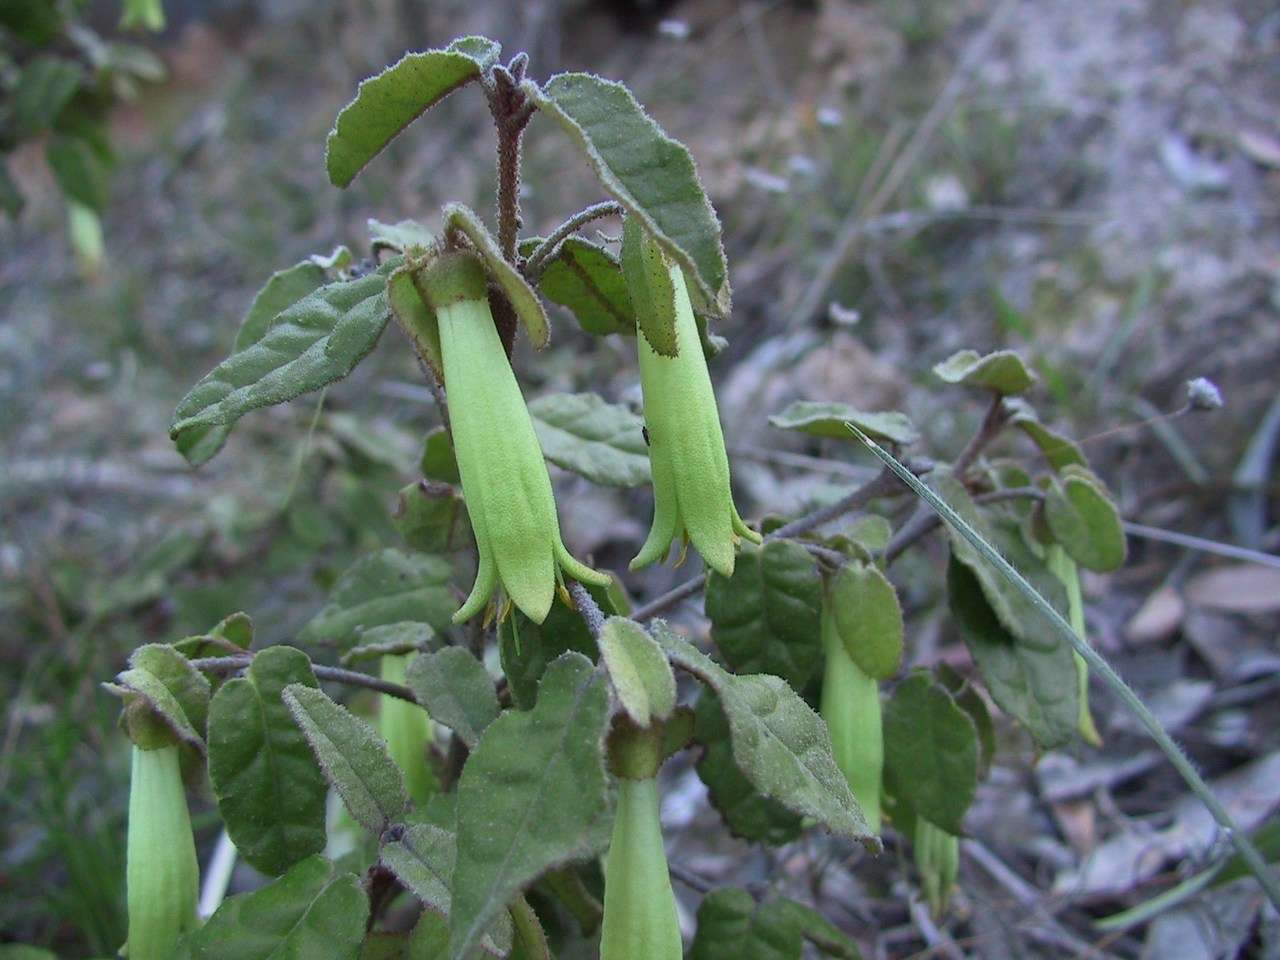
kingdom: Plantae
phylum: Tracheophyta
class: Magnoliopsida
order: Sapindales
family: Rutaceae
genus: Correa
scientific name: Correa reflexa
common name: Common correa
